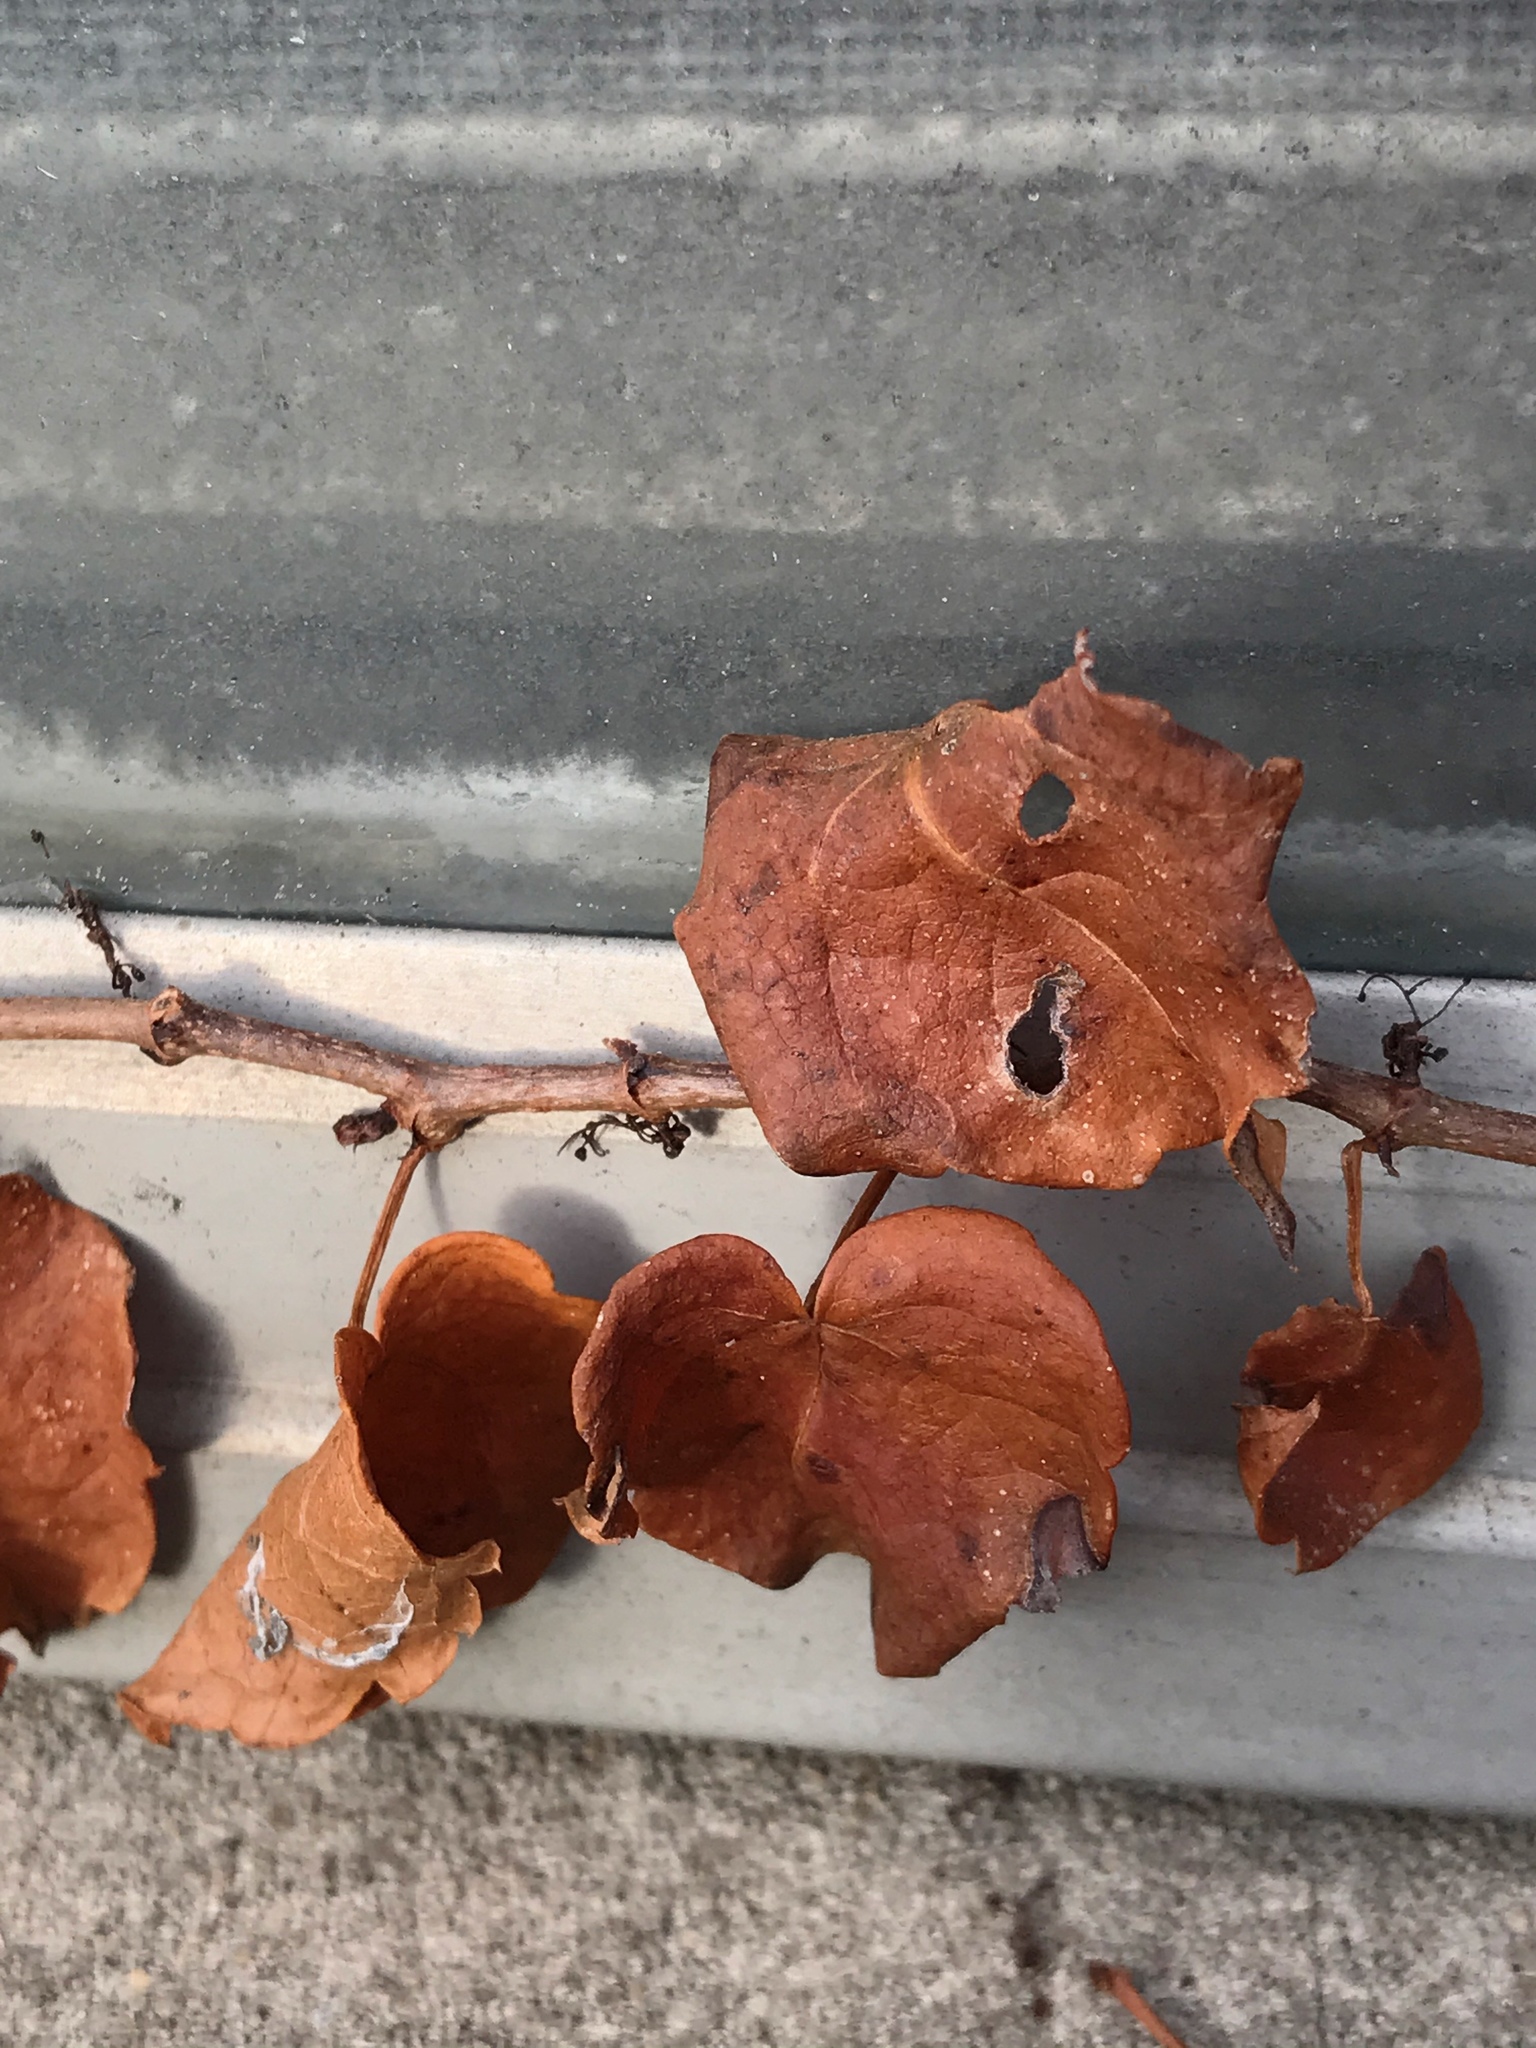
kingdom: Plantae
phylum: Tracheophyta
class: Magnoliopsida
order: Vitales
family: Vitaceae
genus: Parthenocissus
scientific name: Parthenocissus tricuspidata
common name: Boston ivy
